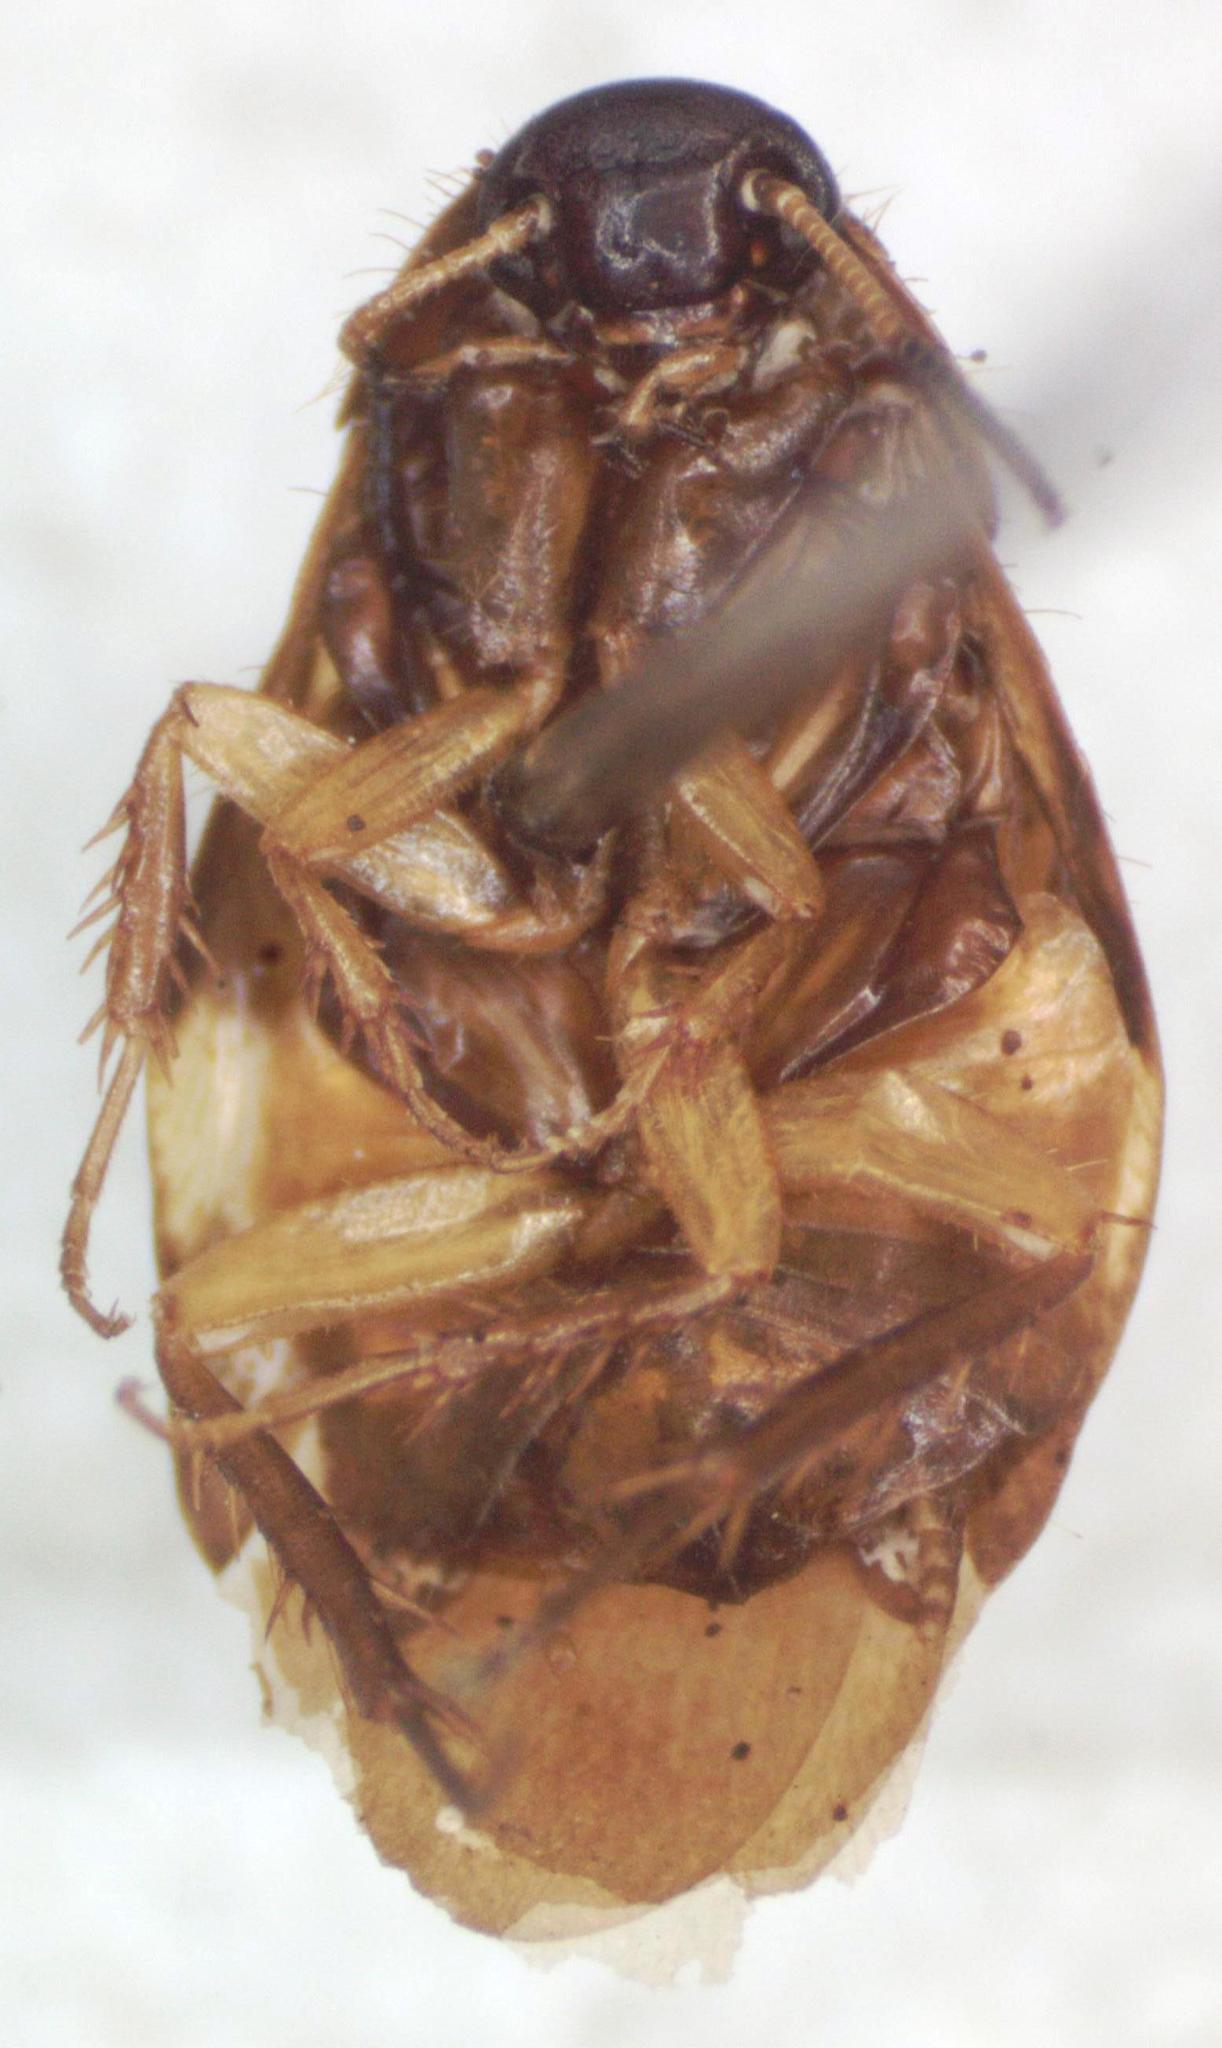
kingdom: Animalia
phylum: Arthropoda
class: Insecta
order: Blattodea
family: Corydiidae
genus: Holocompsa
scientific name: Holocompsa azteca
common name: Aztec hairy cockroach
